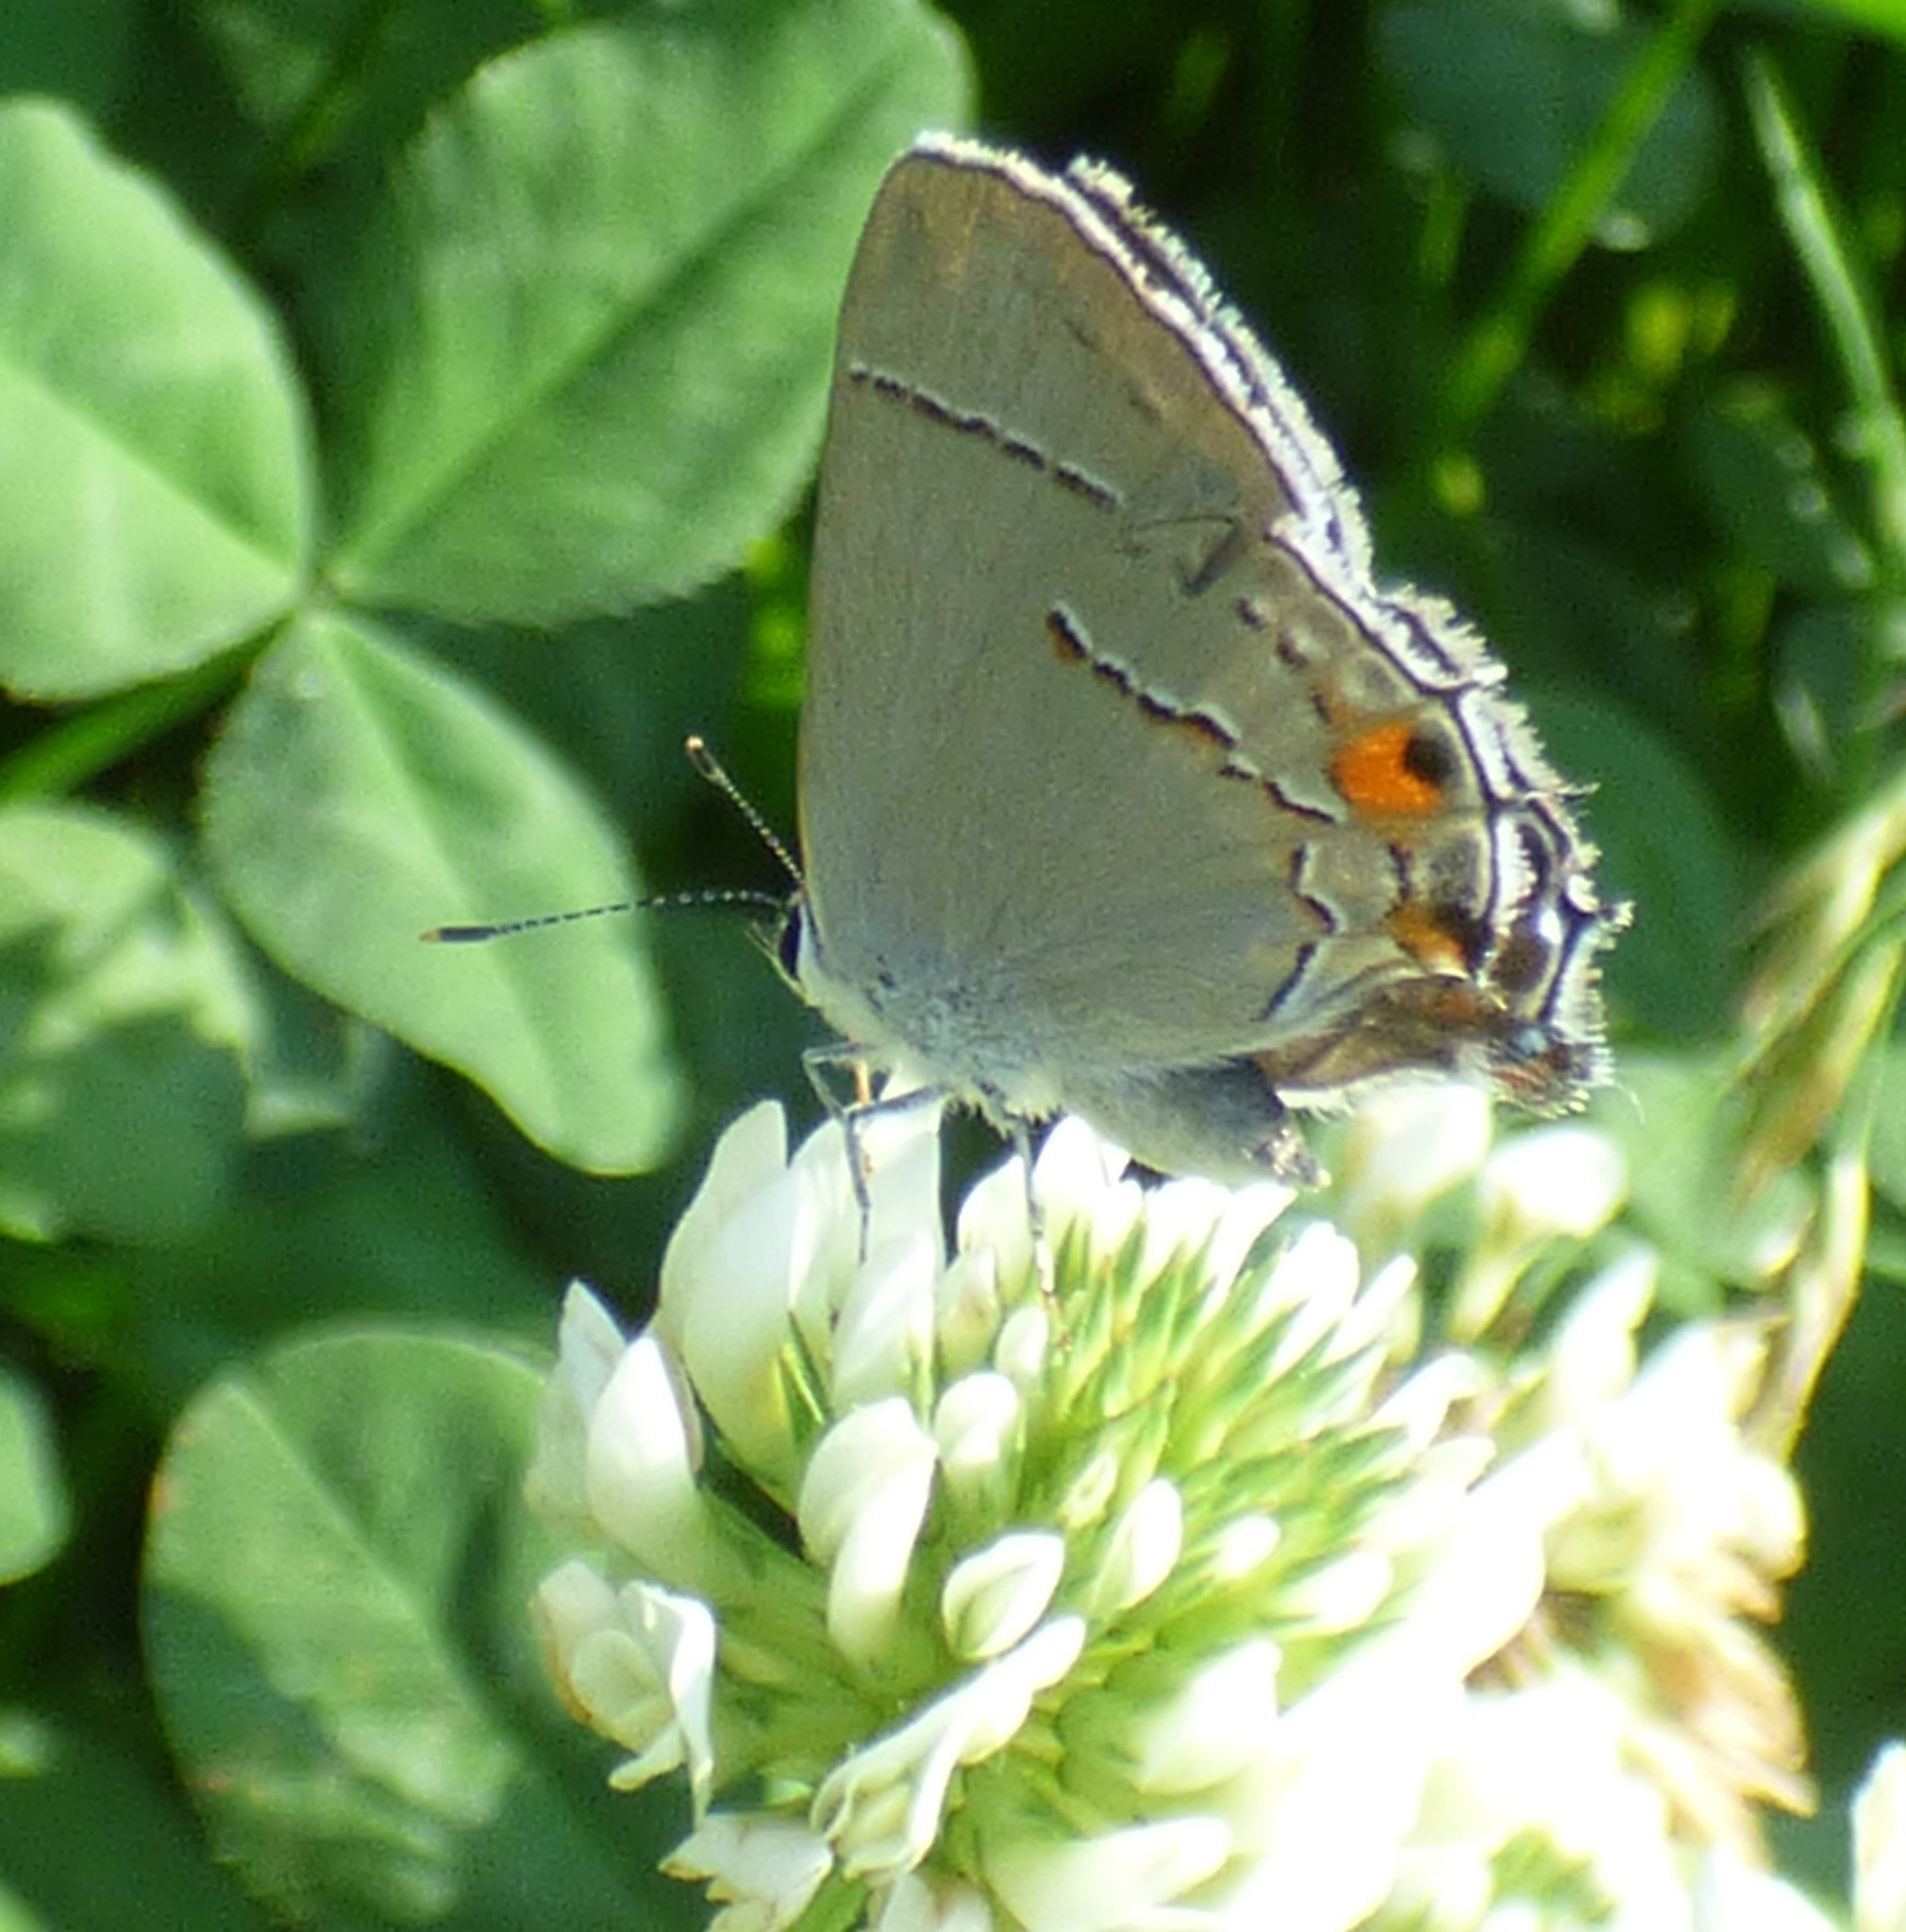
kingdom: Animalia
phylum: Arthropoda
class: Insecta
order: Lepidoptera
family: Lycaenidae
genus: Strymon
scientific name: Strymon melinus
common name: Gray hairstreak
